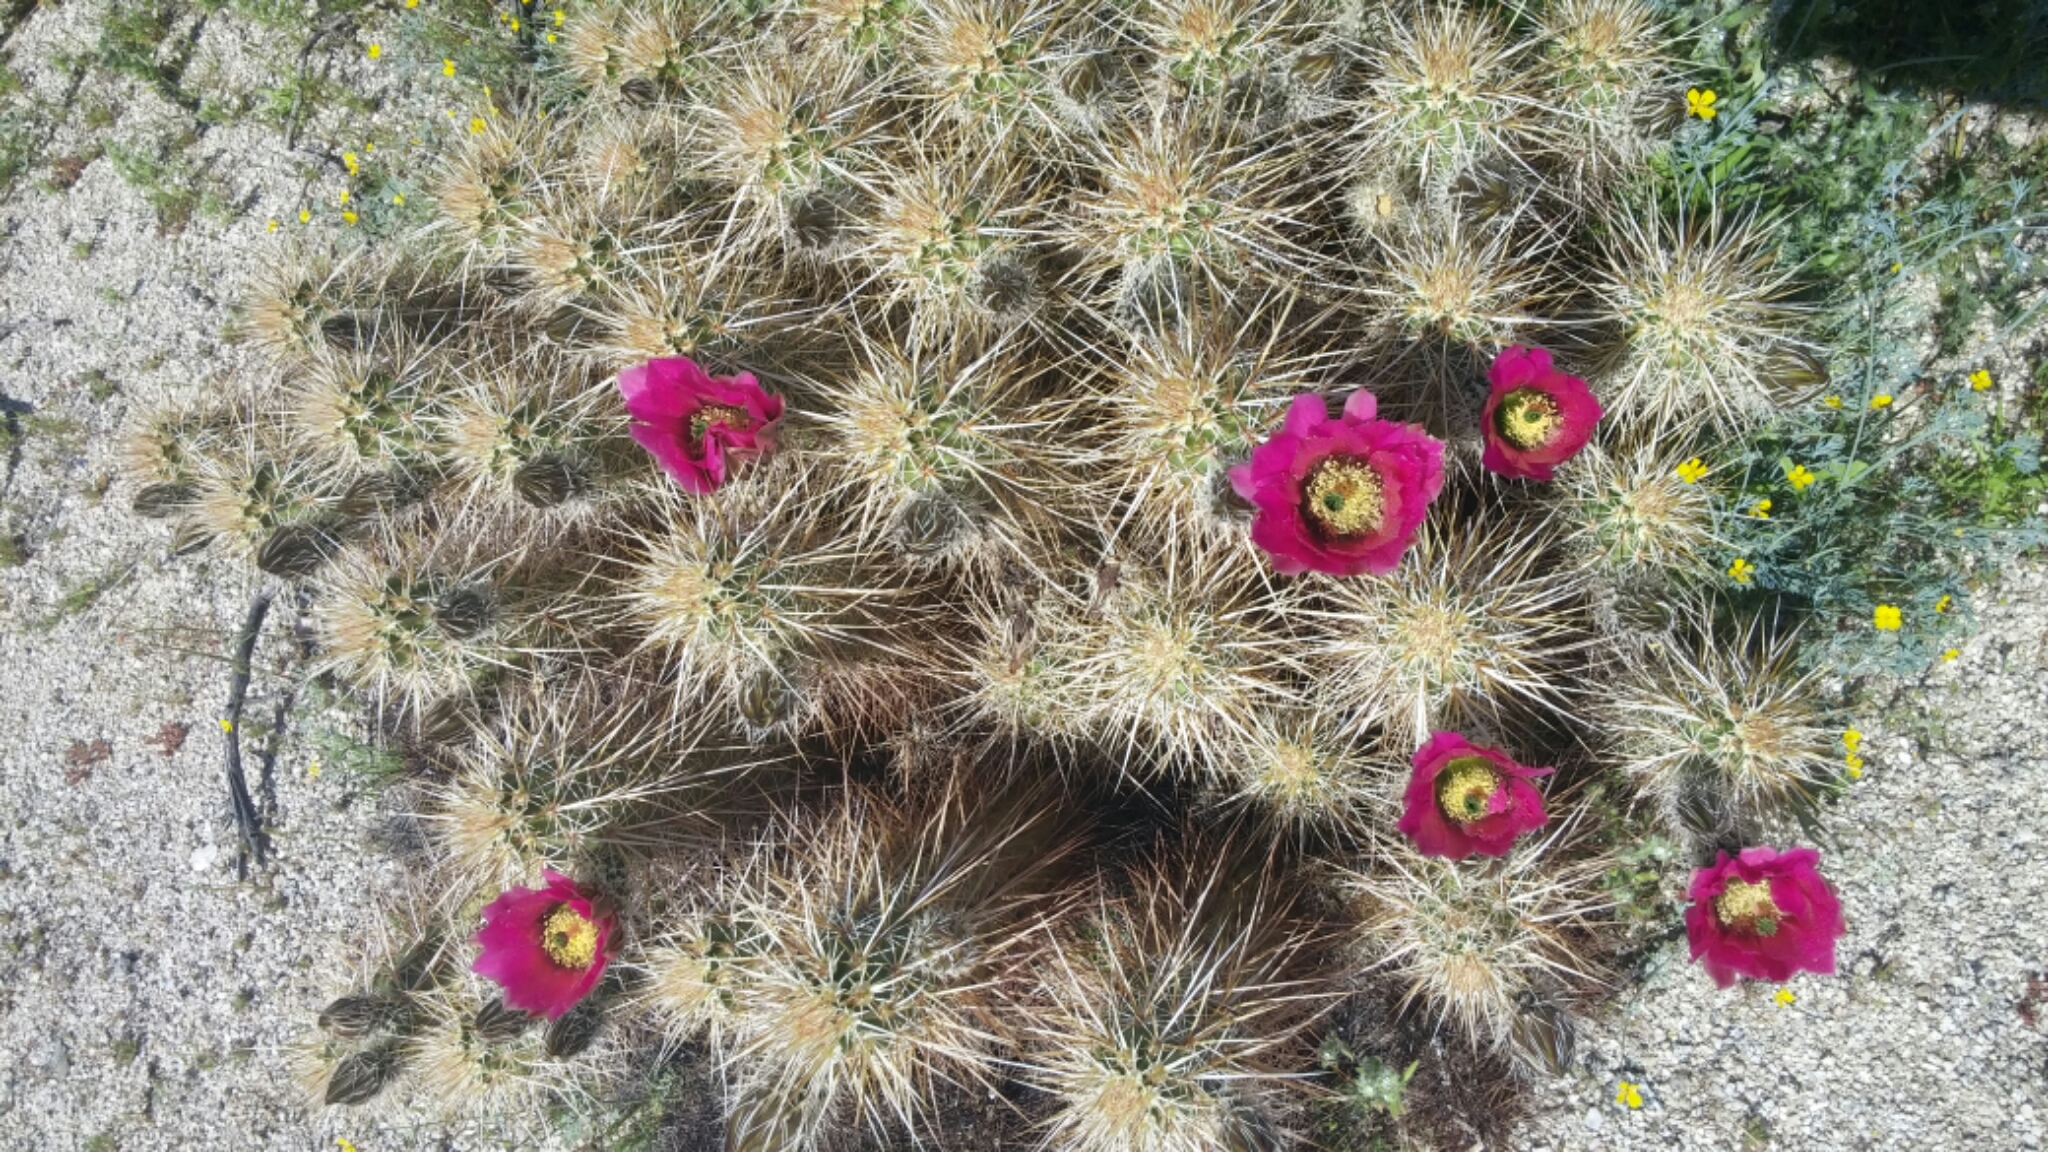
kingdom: Plantae
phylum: Tracheophyta
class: Magnoliopsida
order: Caryophyllales
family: Cactaceae
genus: Echinocereus
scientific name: Echinocereus engelmannii
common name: Engelmann's hedgehog cactus
